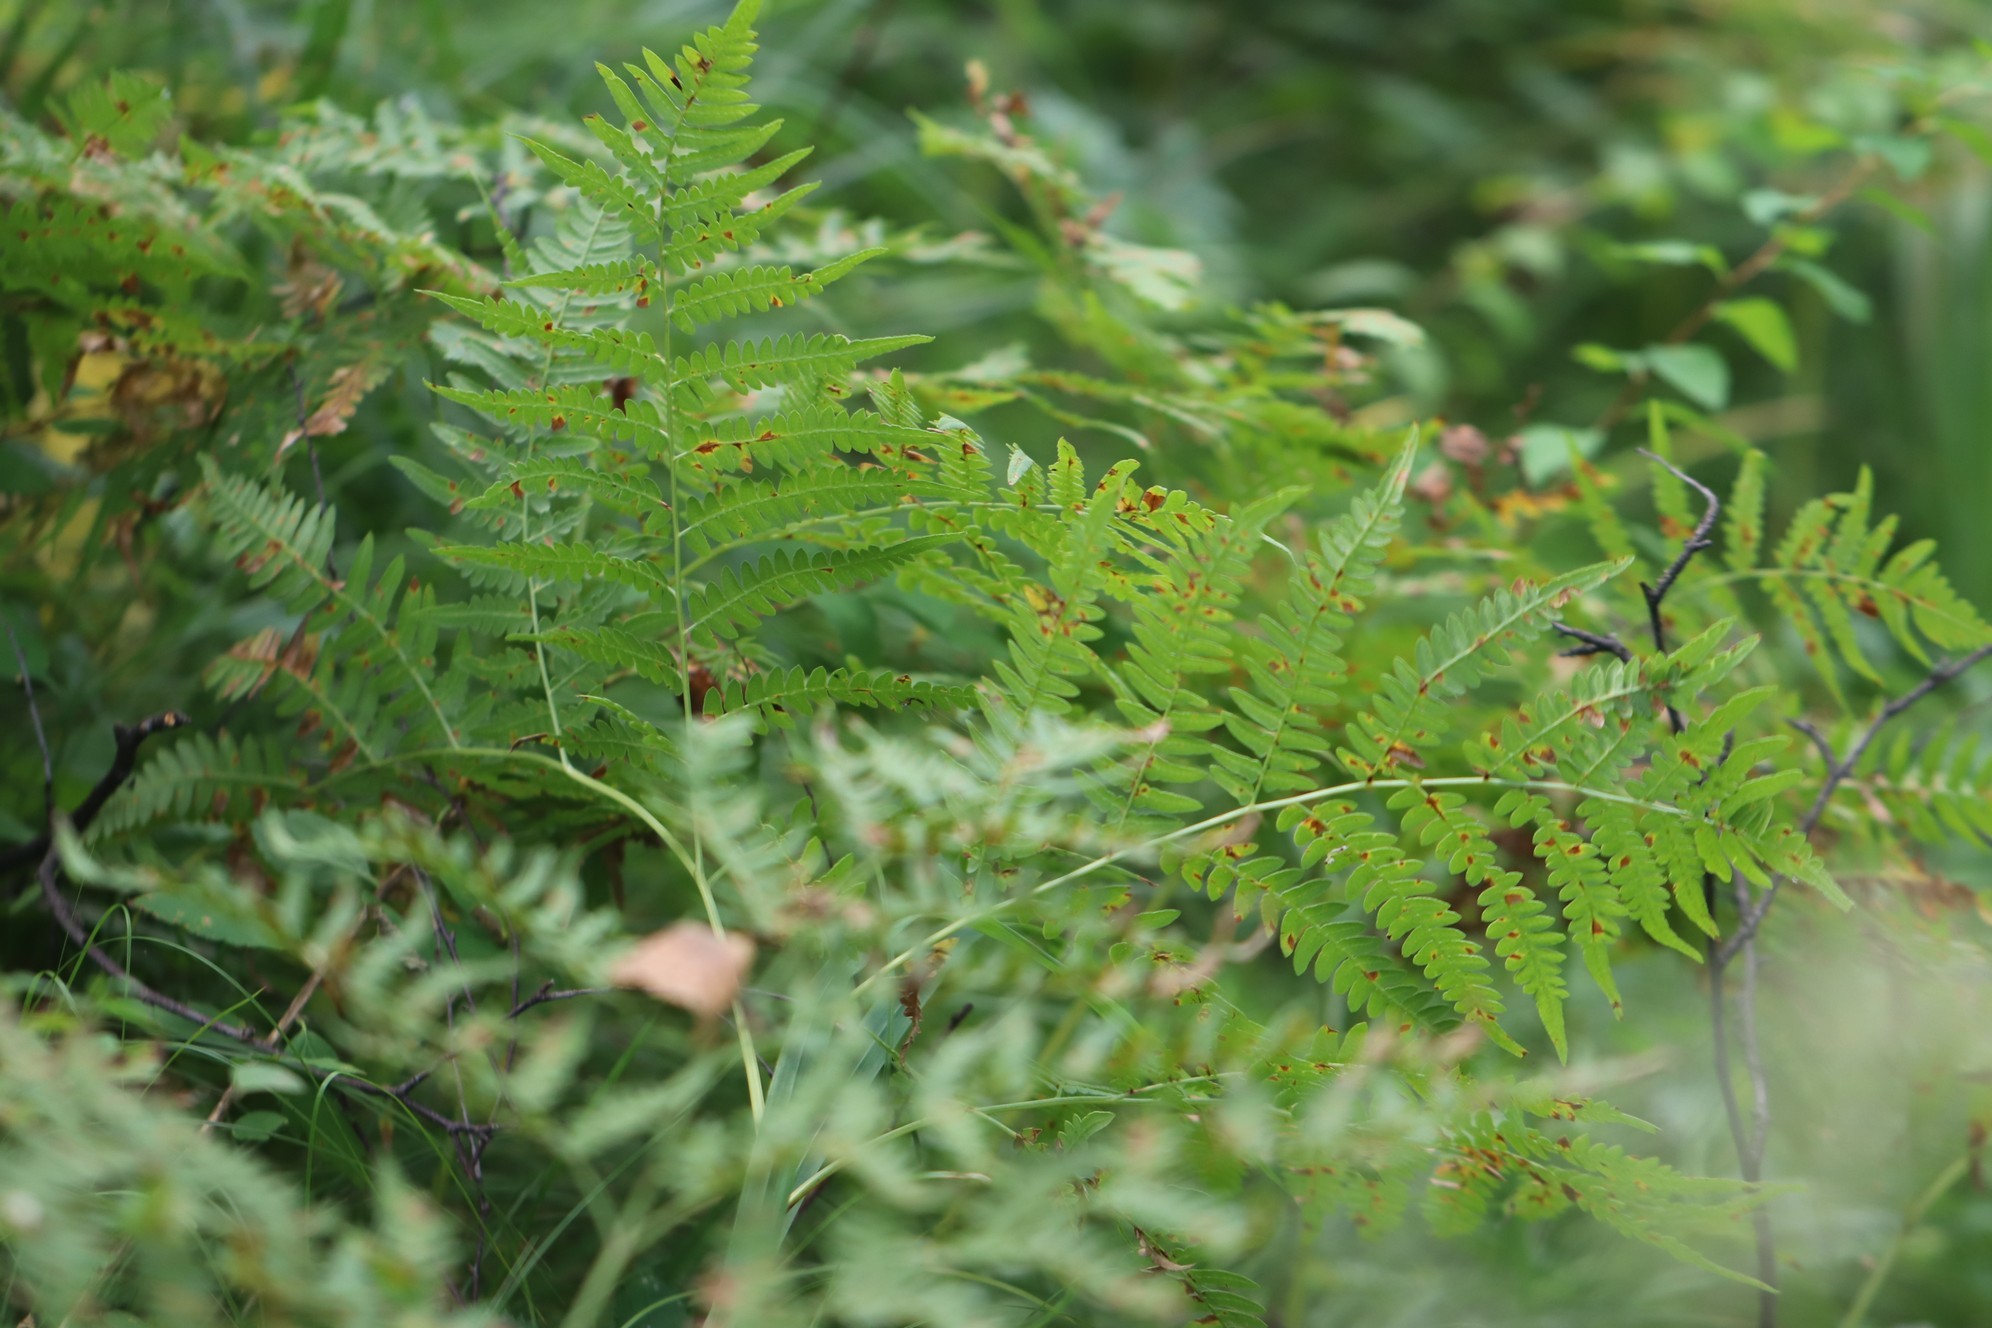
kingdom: Plantae
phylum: Tracheophyta
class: Polypodiopsida
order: Polypodiales
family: Dennstaedtiaceae
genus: Pteridium
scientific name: Pteridium aquilinum
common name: Bracken
